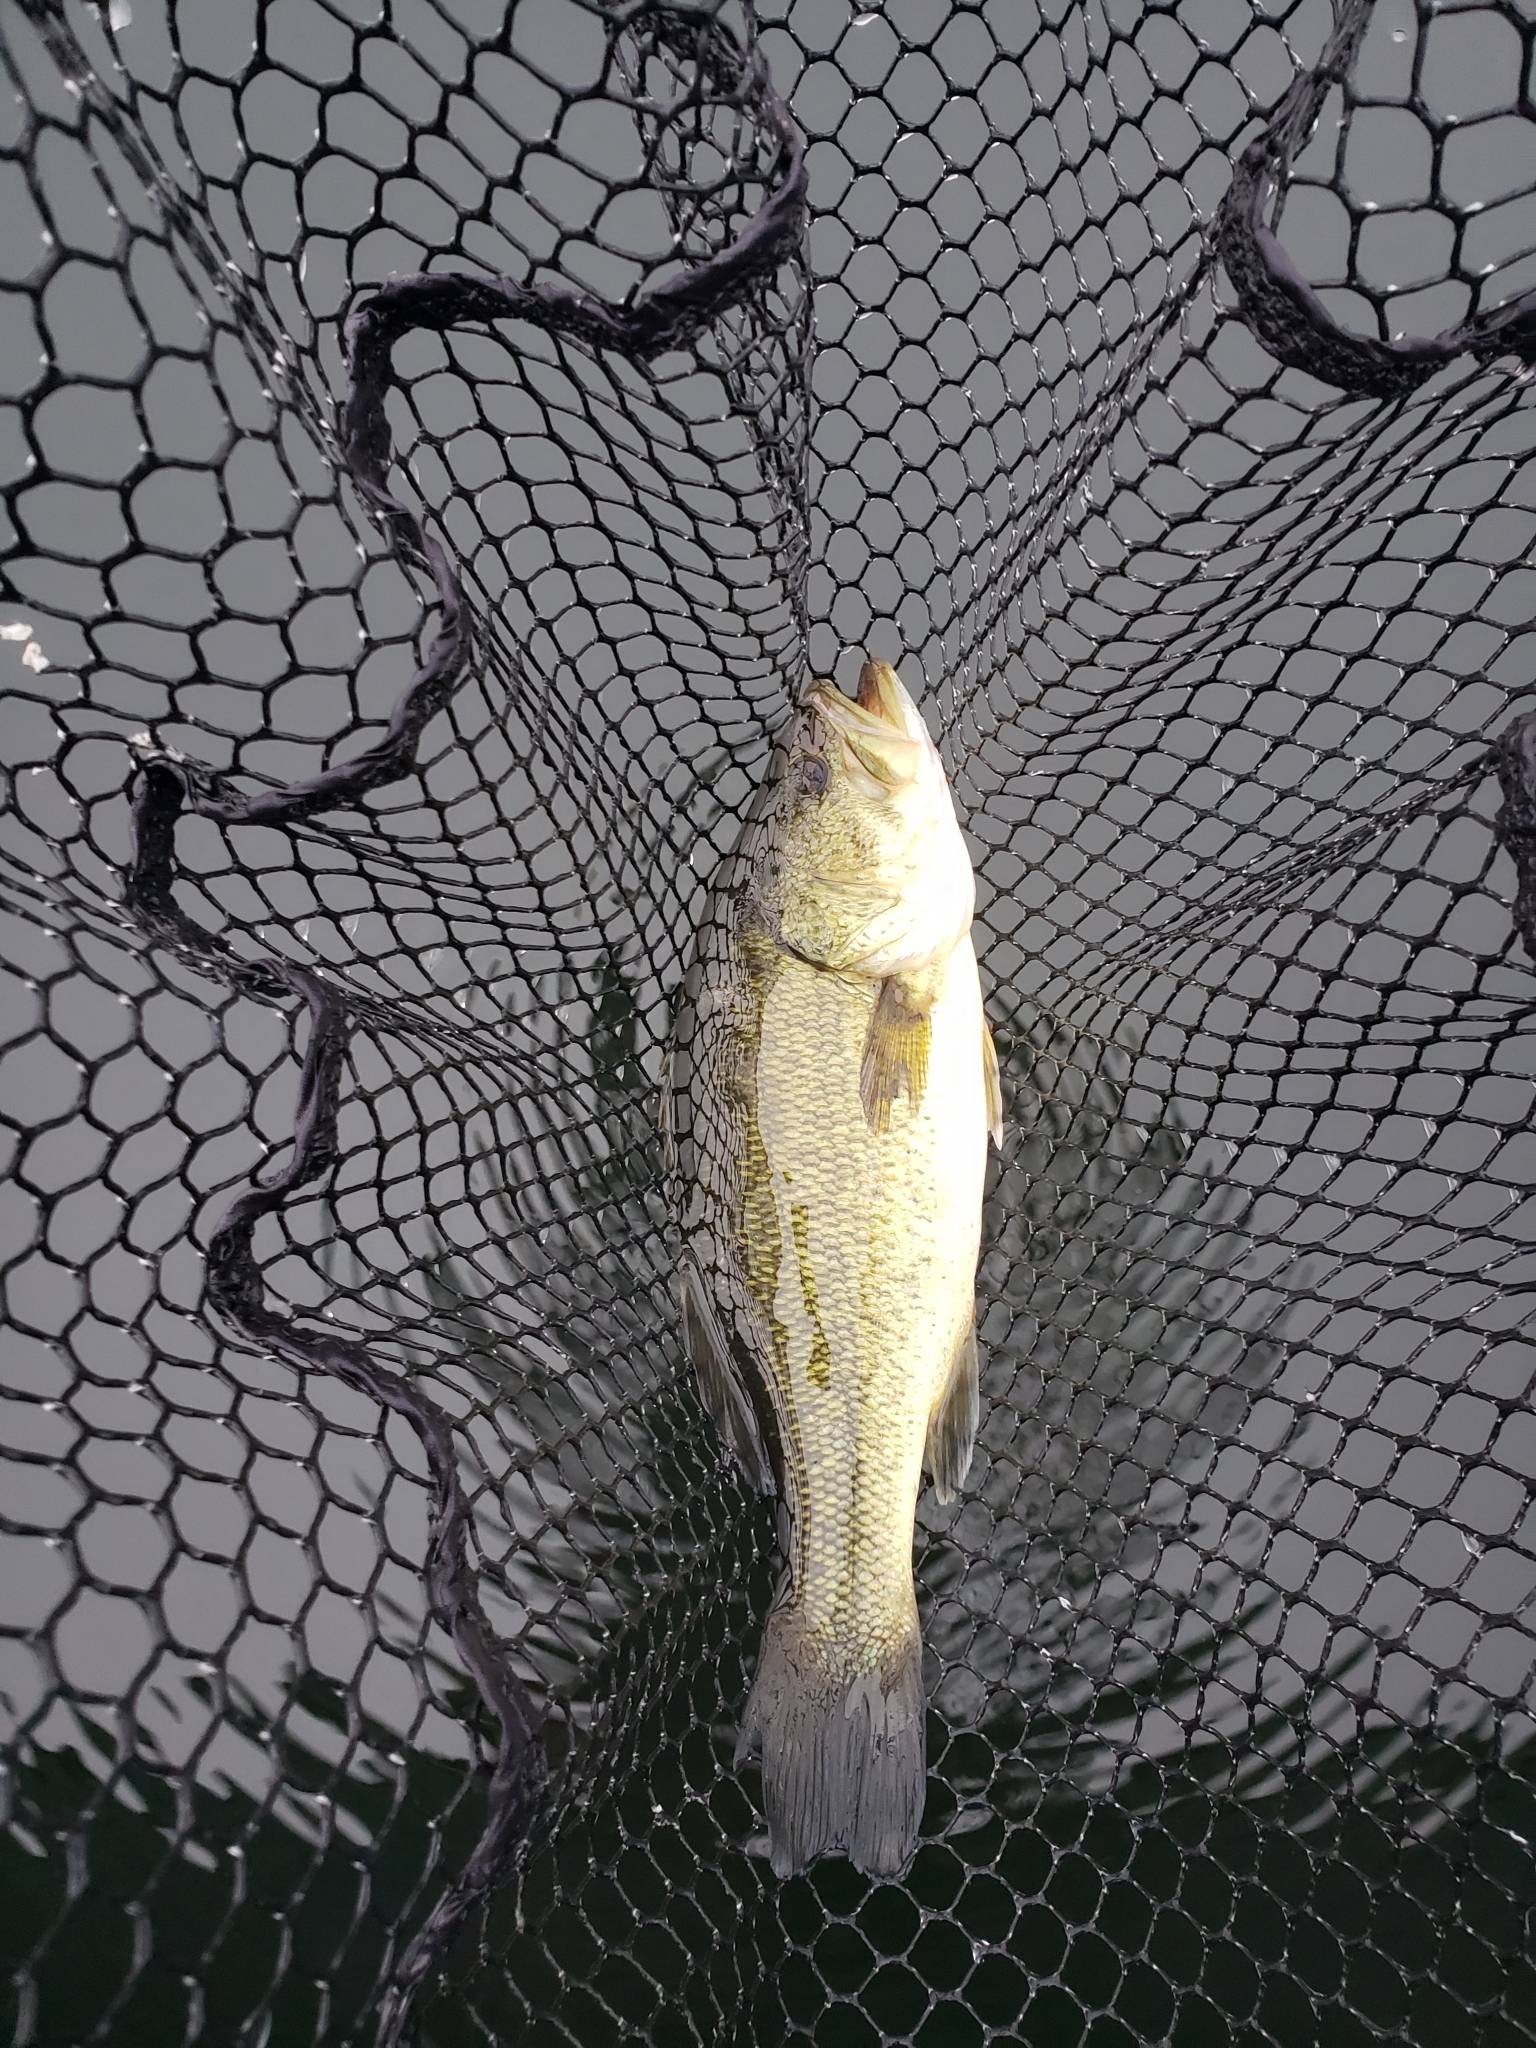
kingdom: Animalia
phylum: Chordata
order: Perciformes
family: Centrarchidae
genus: Micropterus
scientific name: Micropterus
